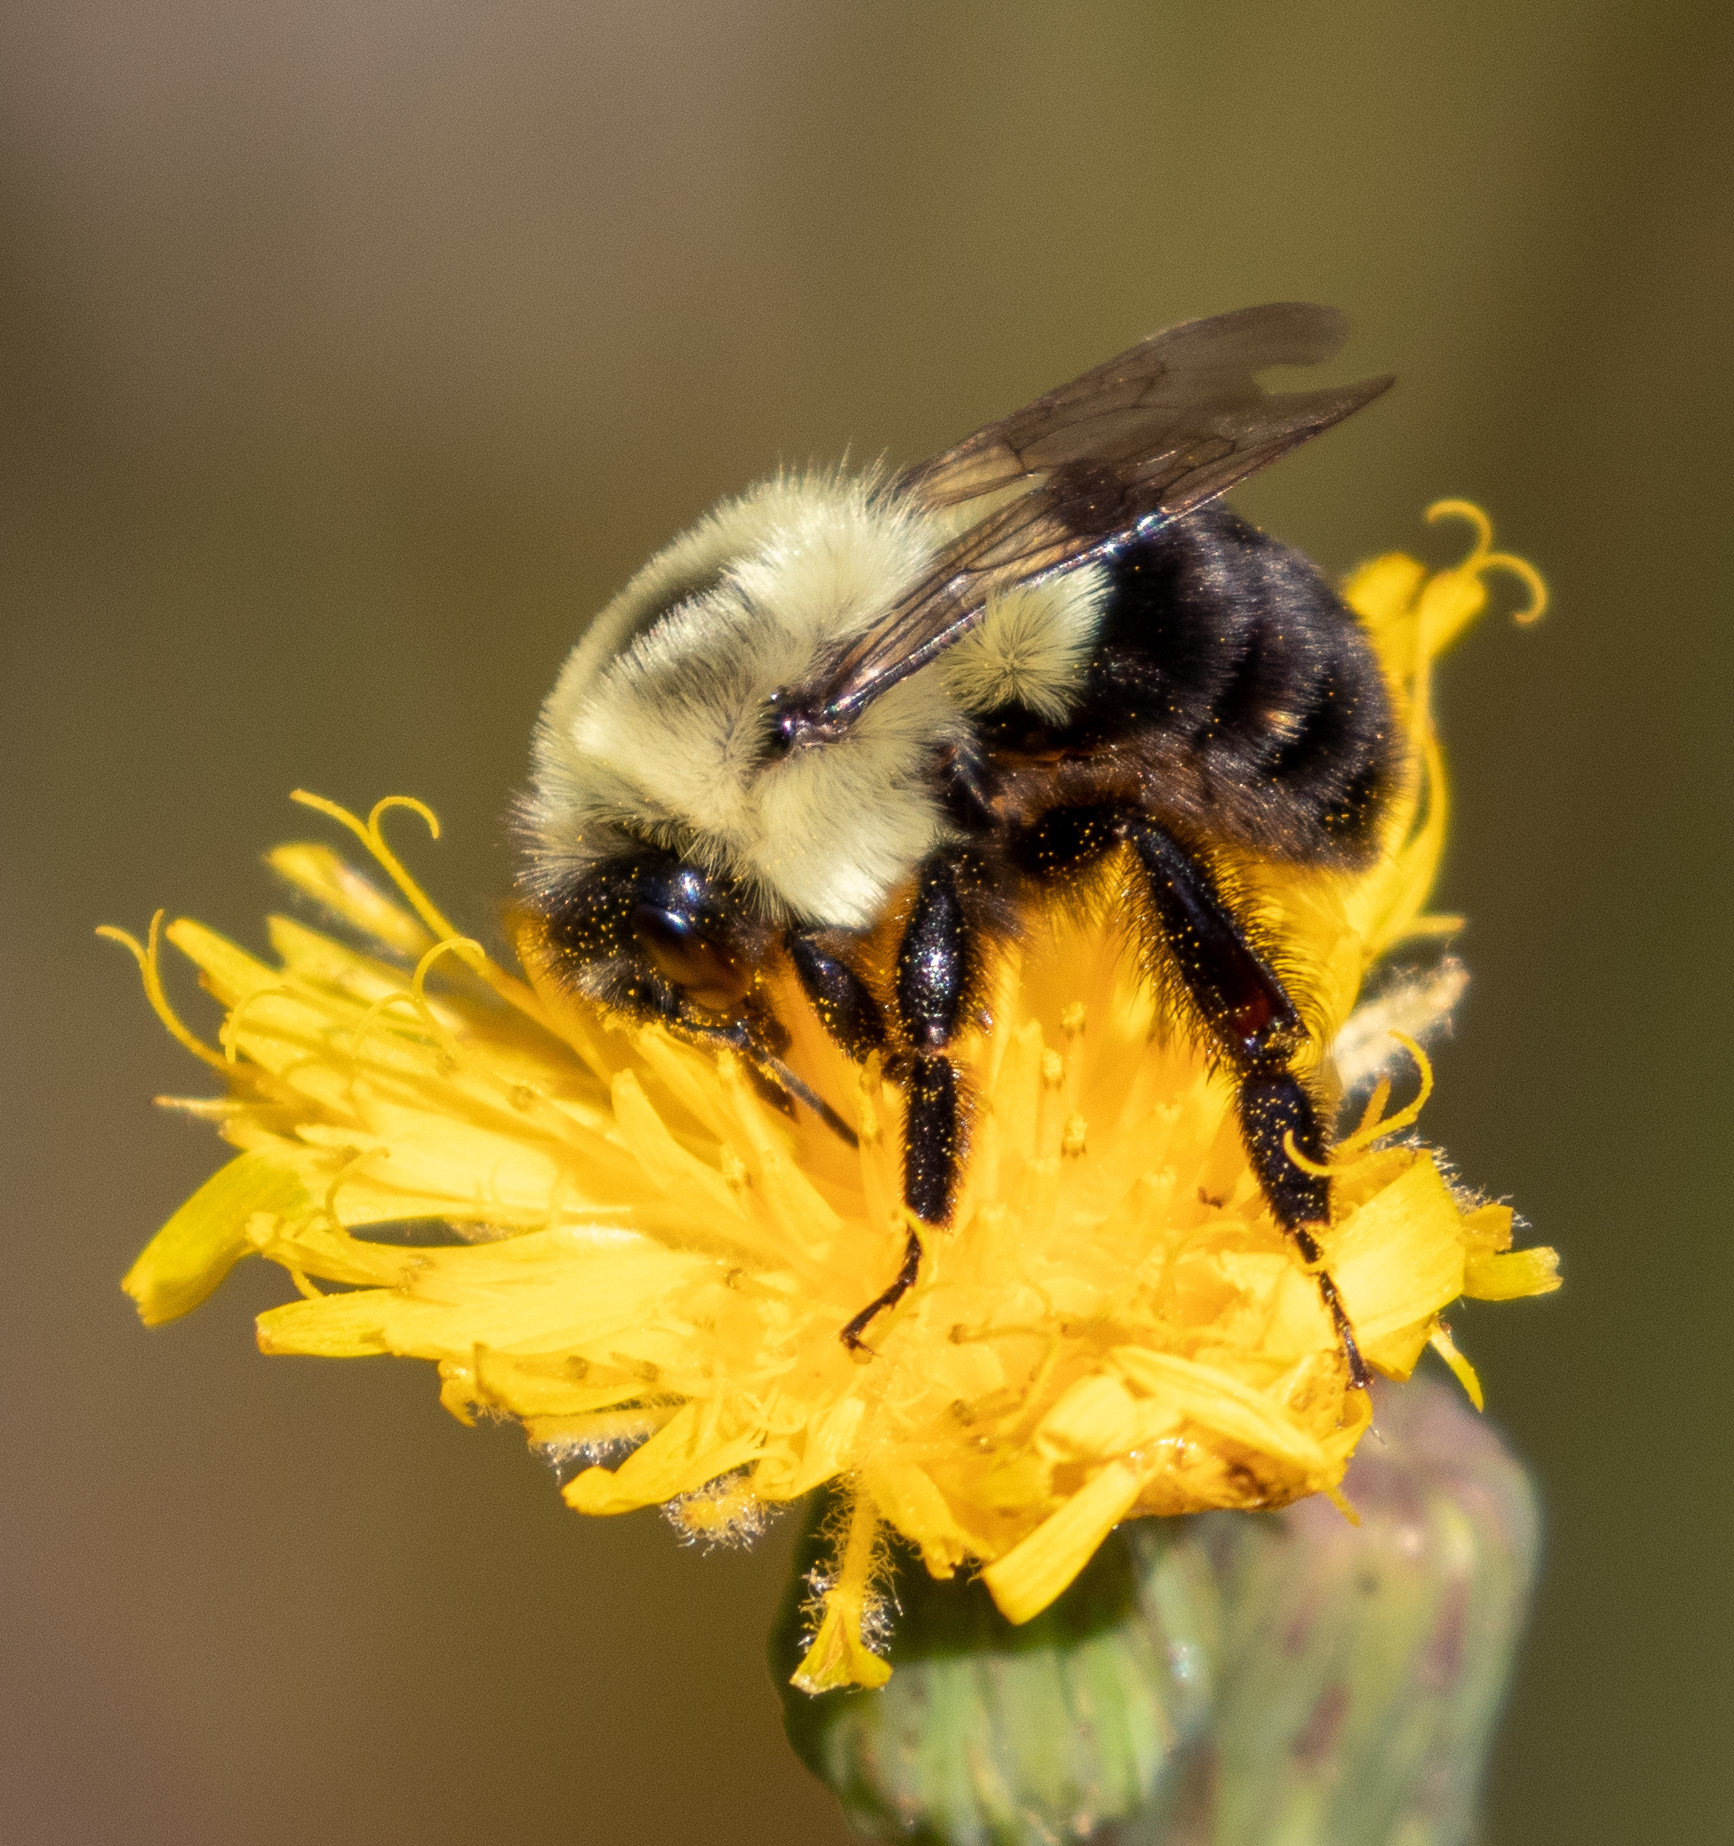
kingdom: Animalia
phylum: Arthropoda
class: Insecta
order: Hymenoptera
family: Apidae
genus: Bombus
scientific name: Bombus impatiens
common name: Common eastern bumble bee
